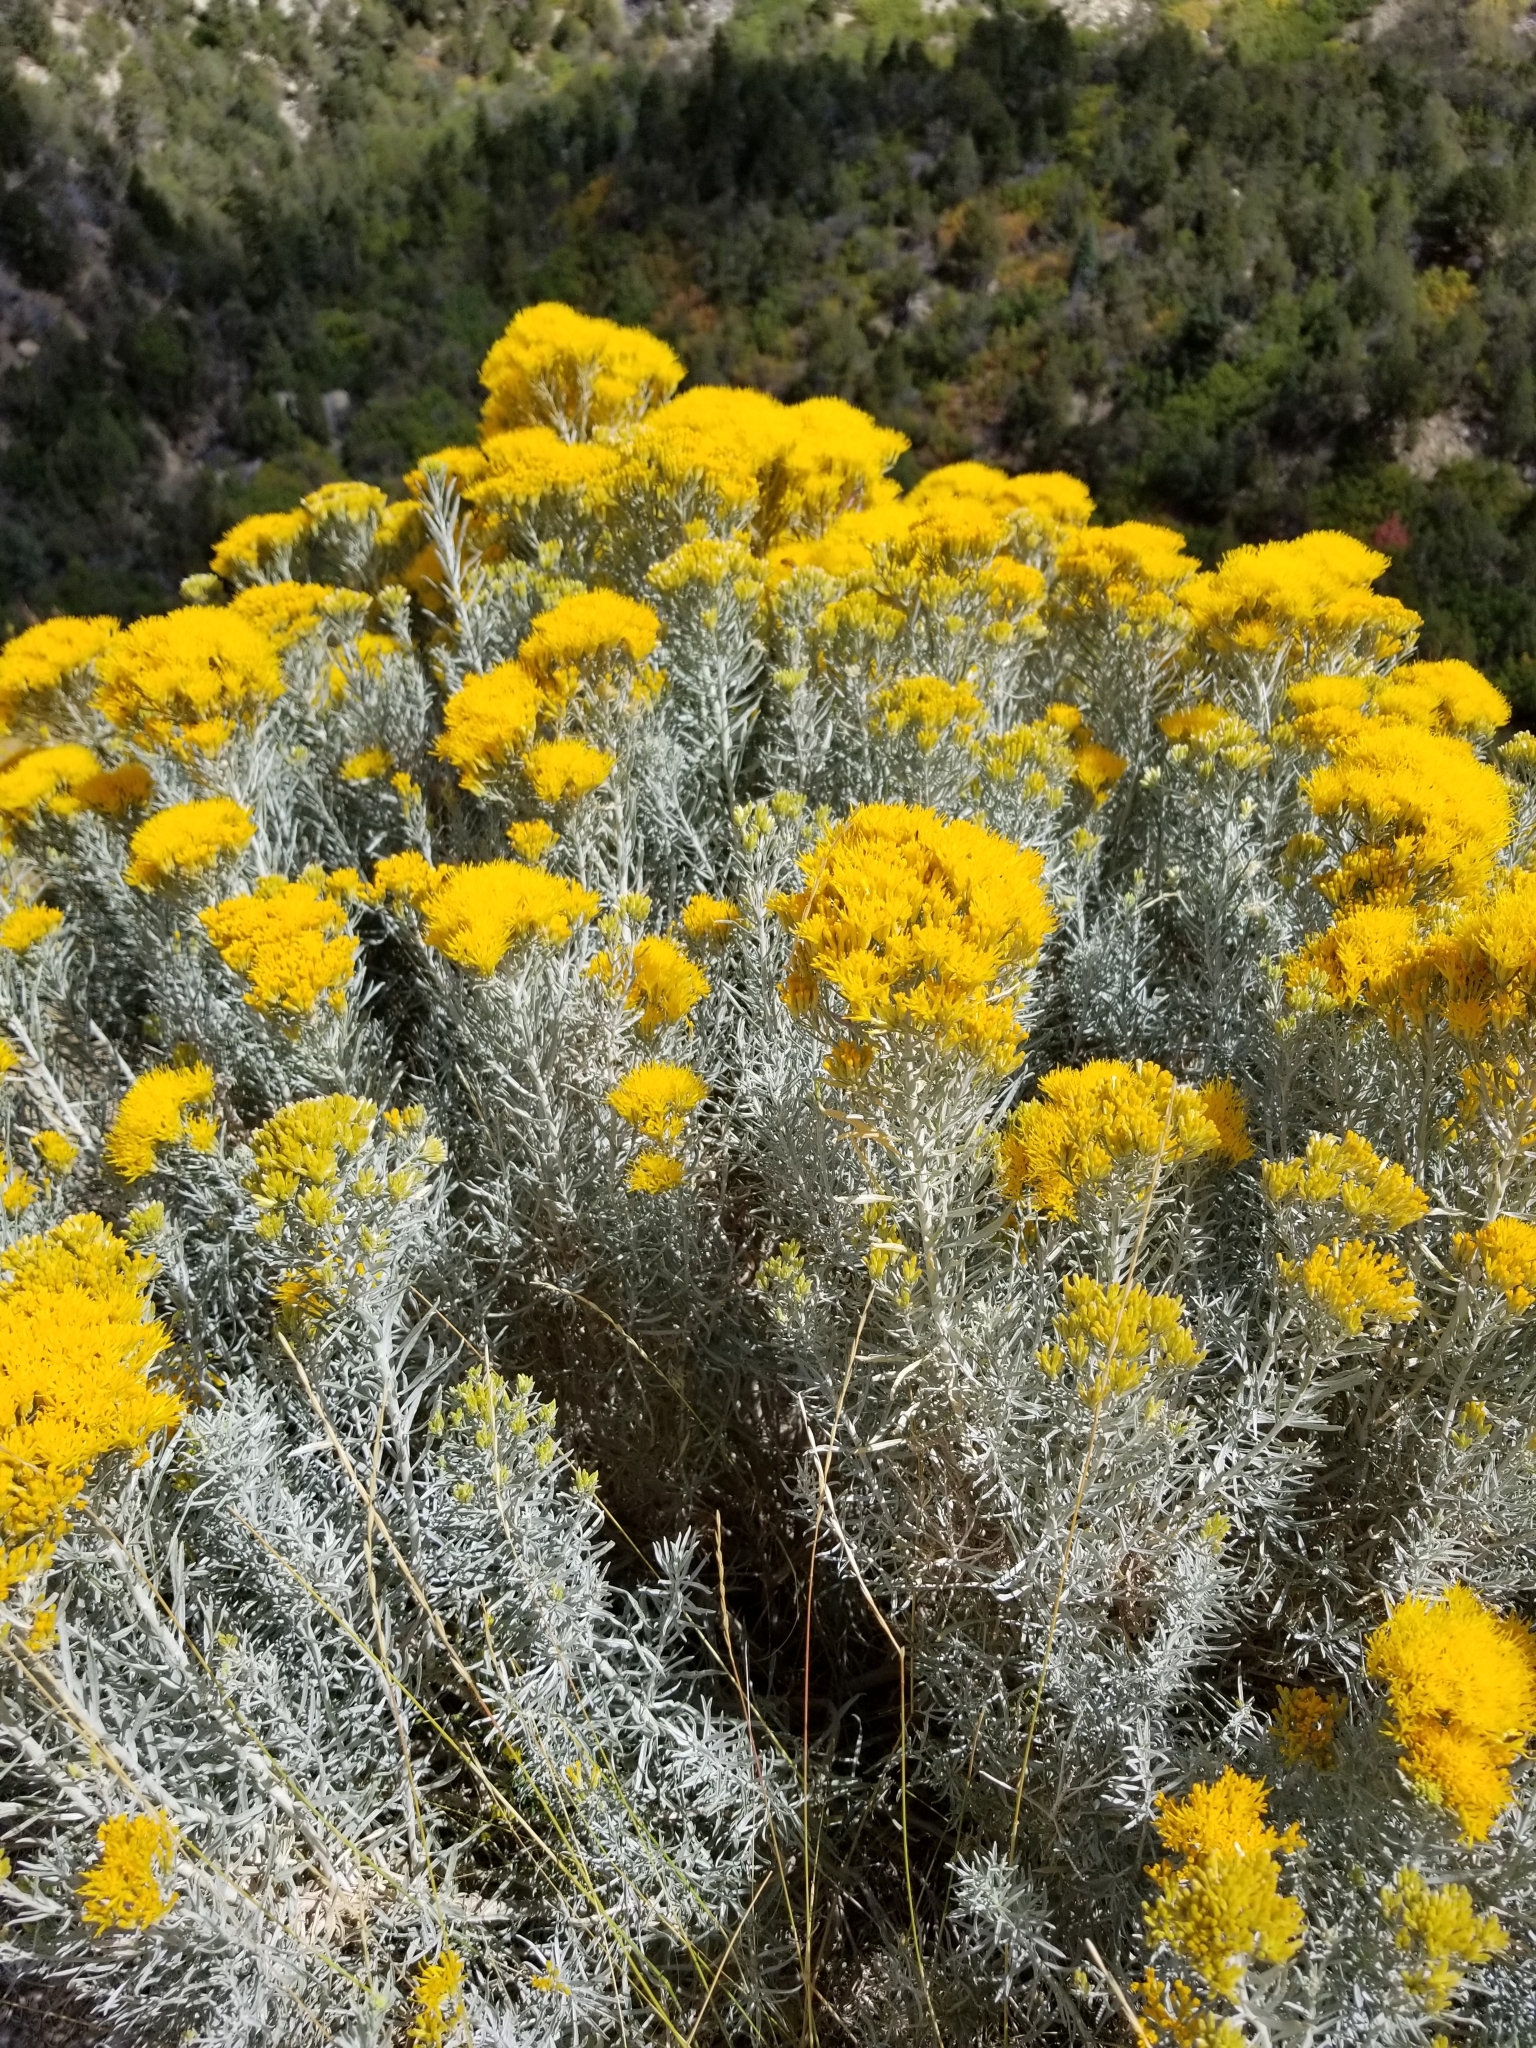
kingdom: Plantae
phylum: Tracheophyta
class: Magnoliopsida
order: Asterales
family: Asteraceae
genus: Ericameria
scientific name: Ericameria nauseosa
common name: Rubber rabbitbrush
